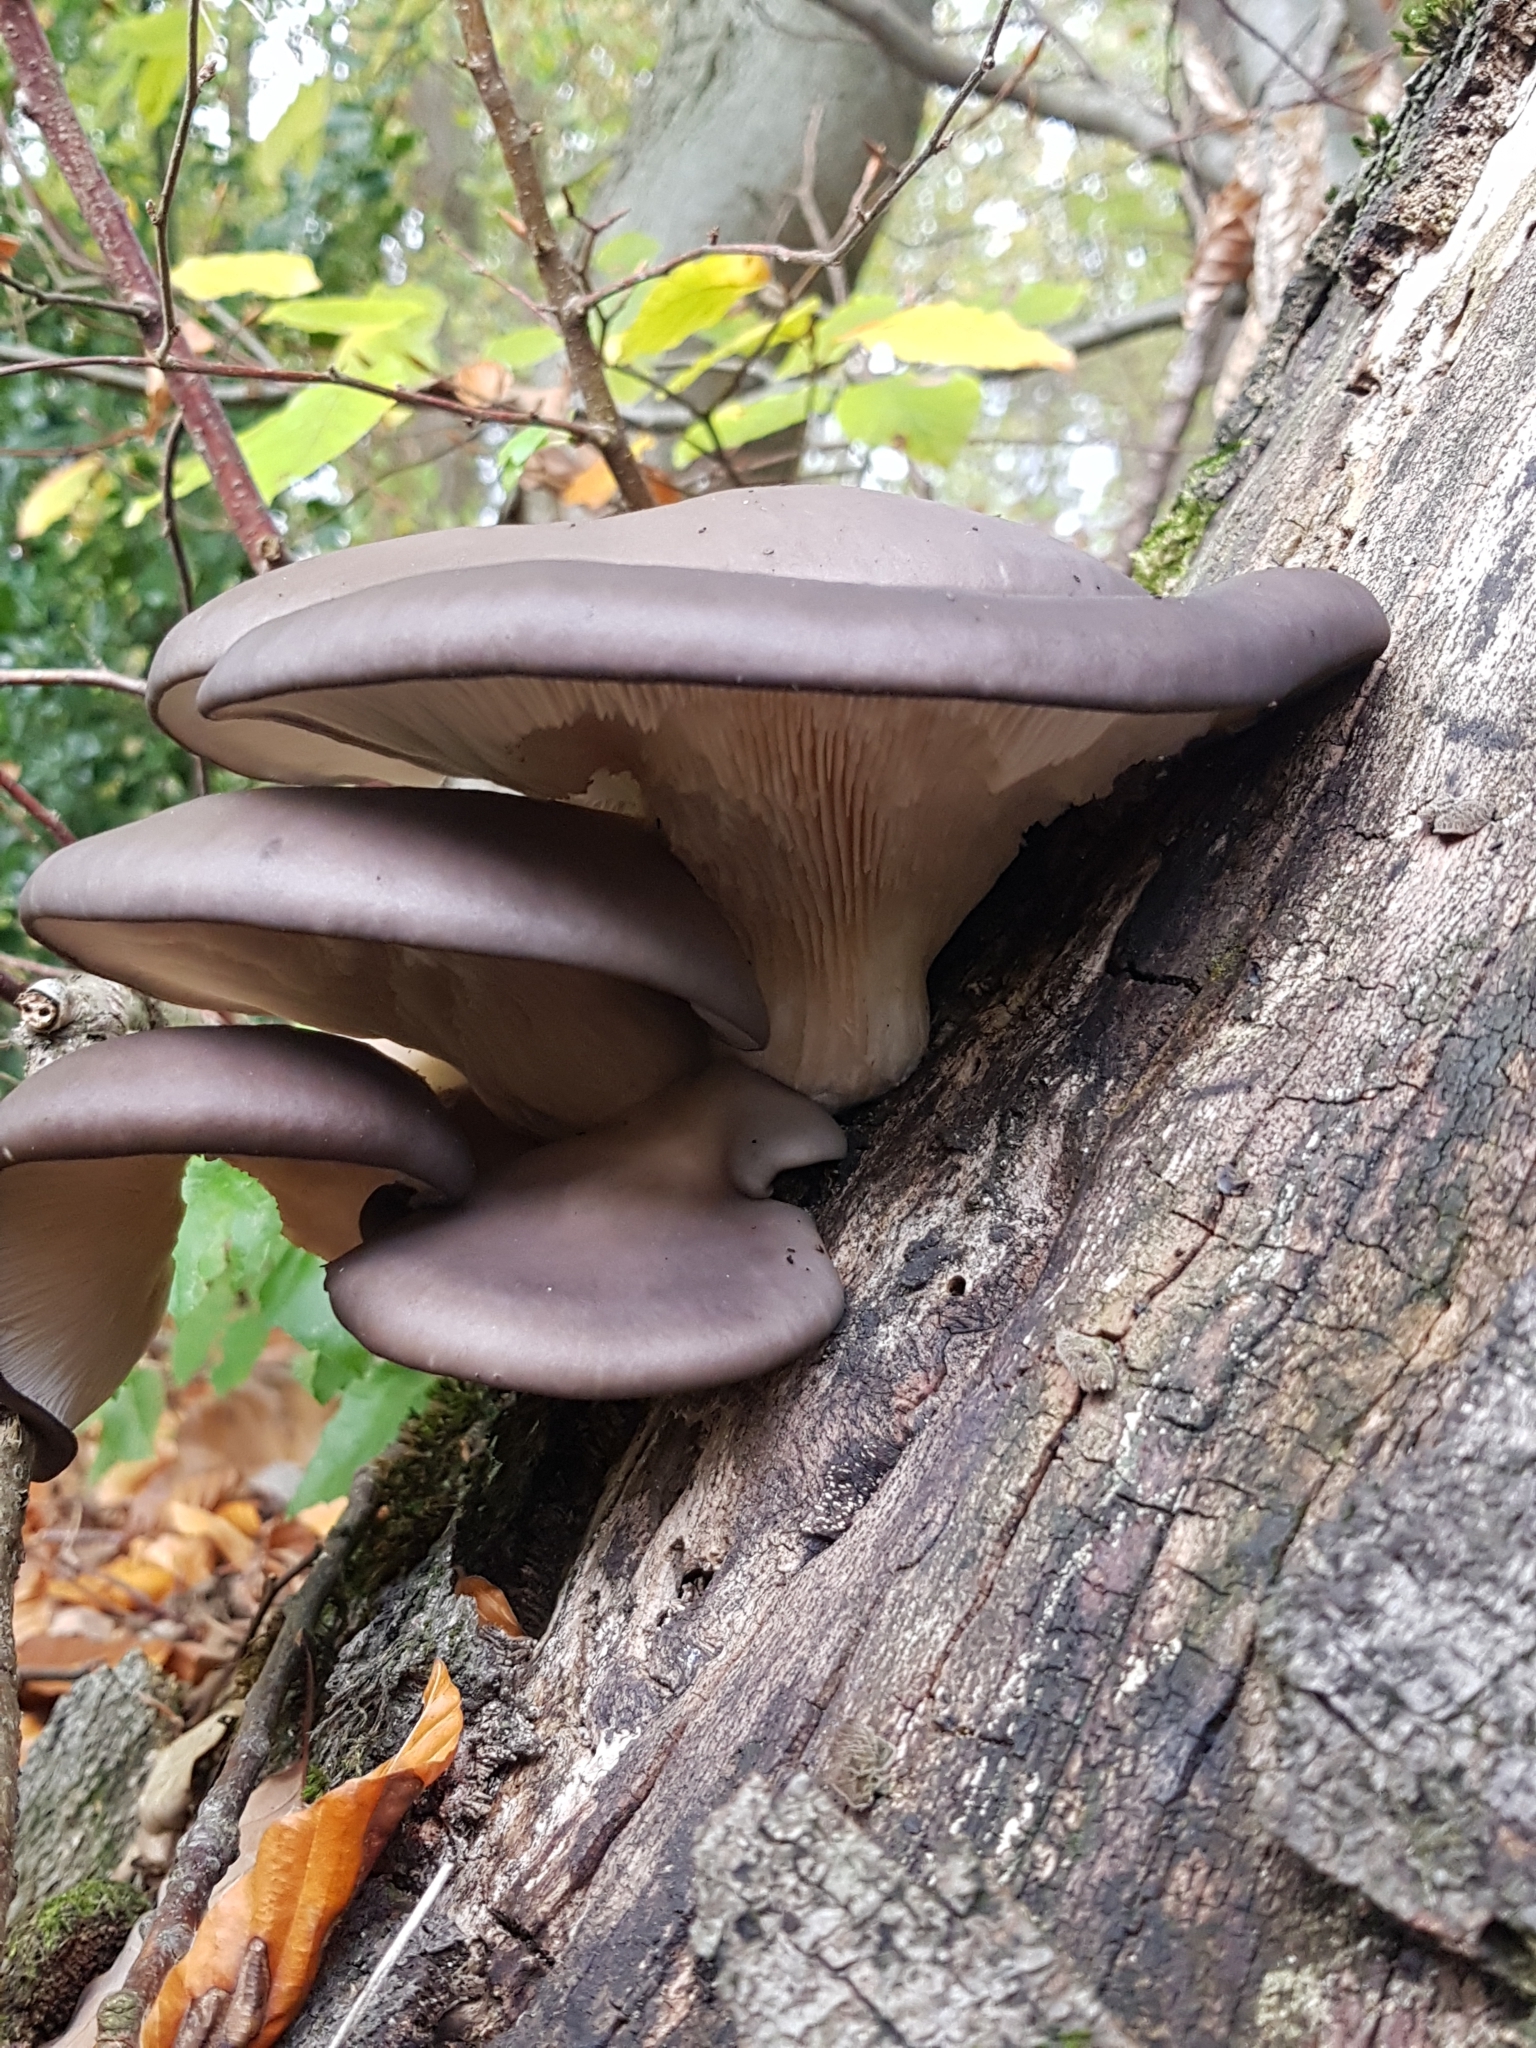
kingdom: Fungi
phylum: Basidiomycota
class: Agaricomycetes
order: Agaricales
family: Pleurotaceae
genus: Pleurotus
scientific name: Pleurotus ostreatus
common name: Oyster mushroom
